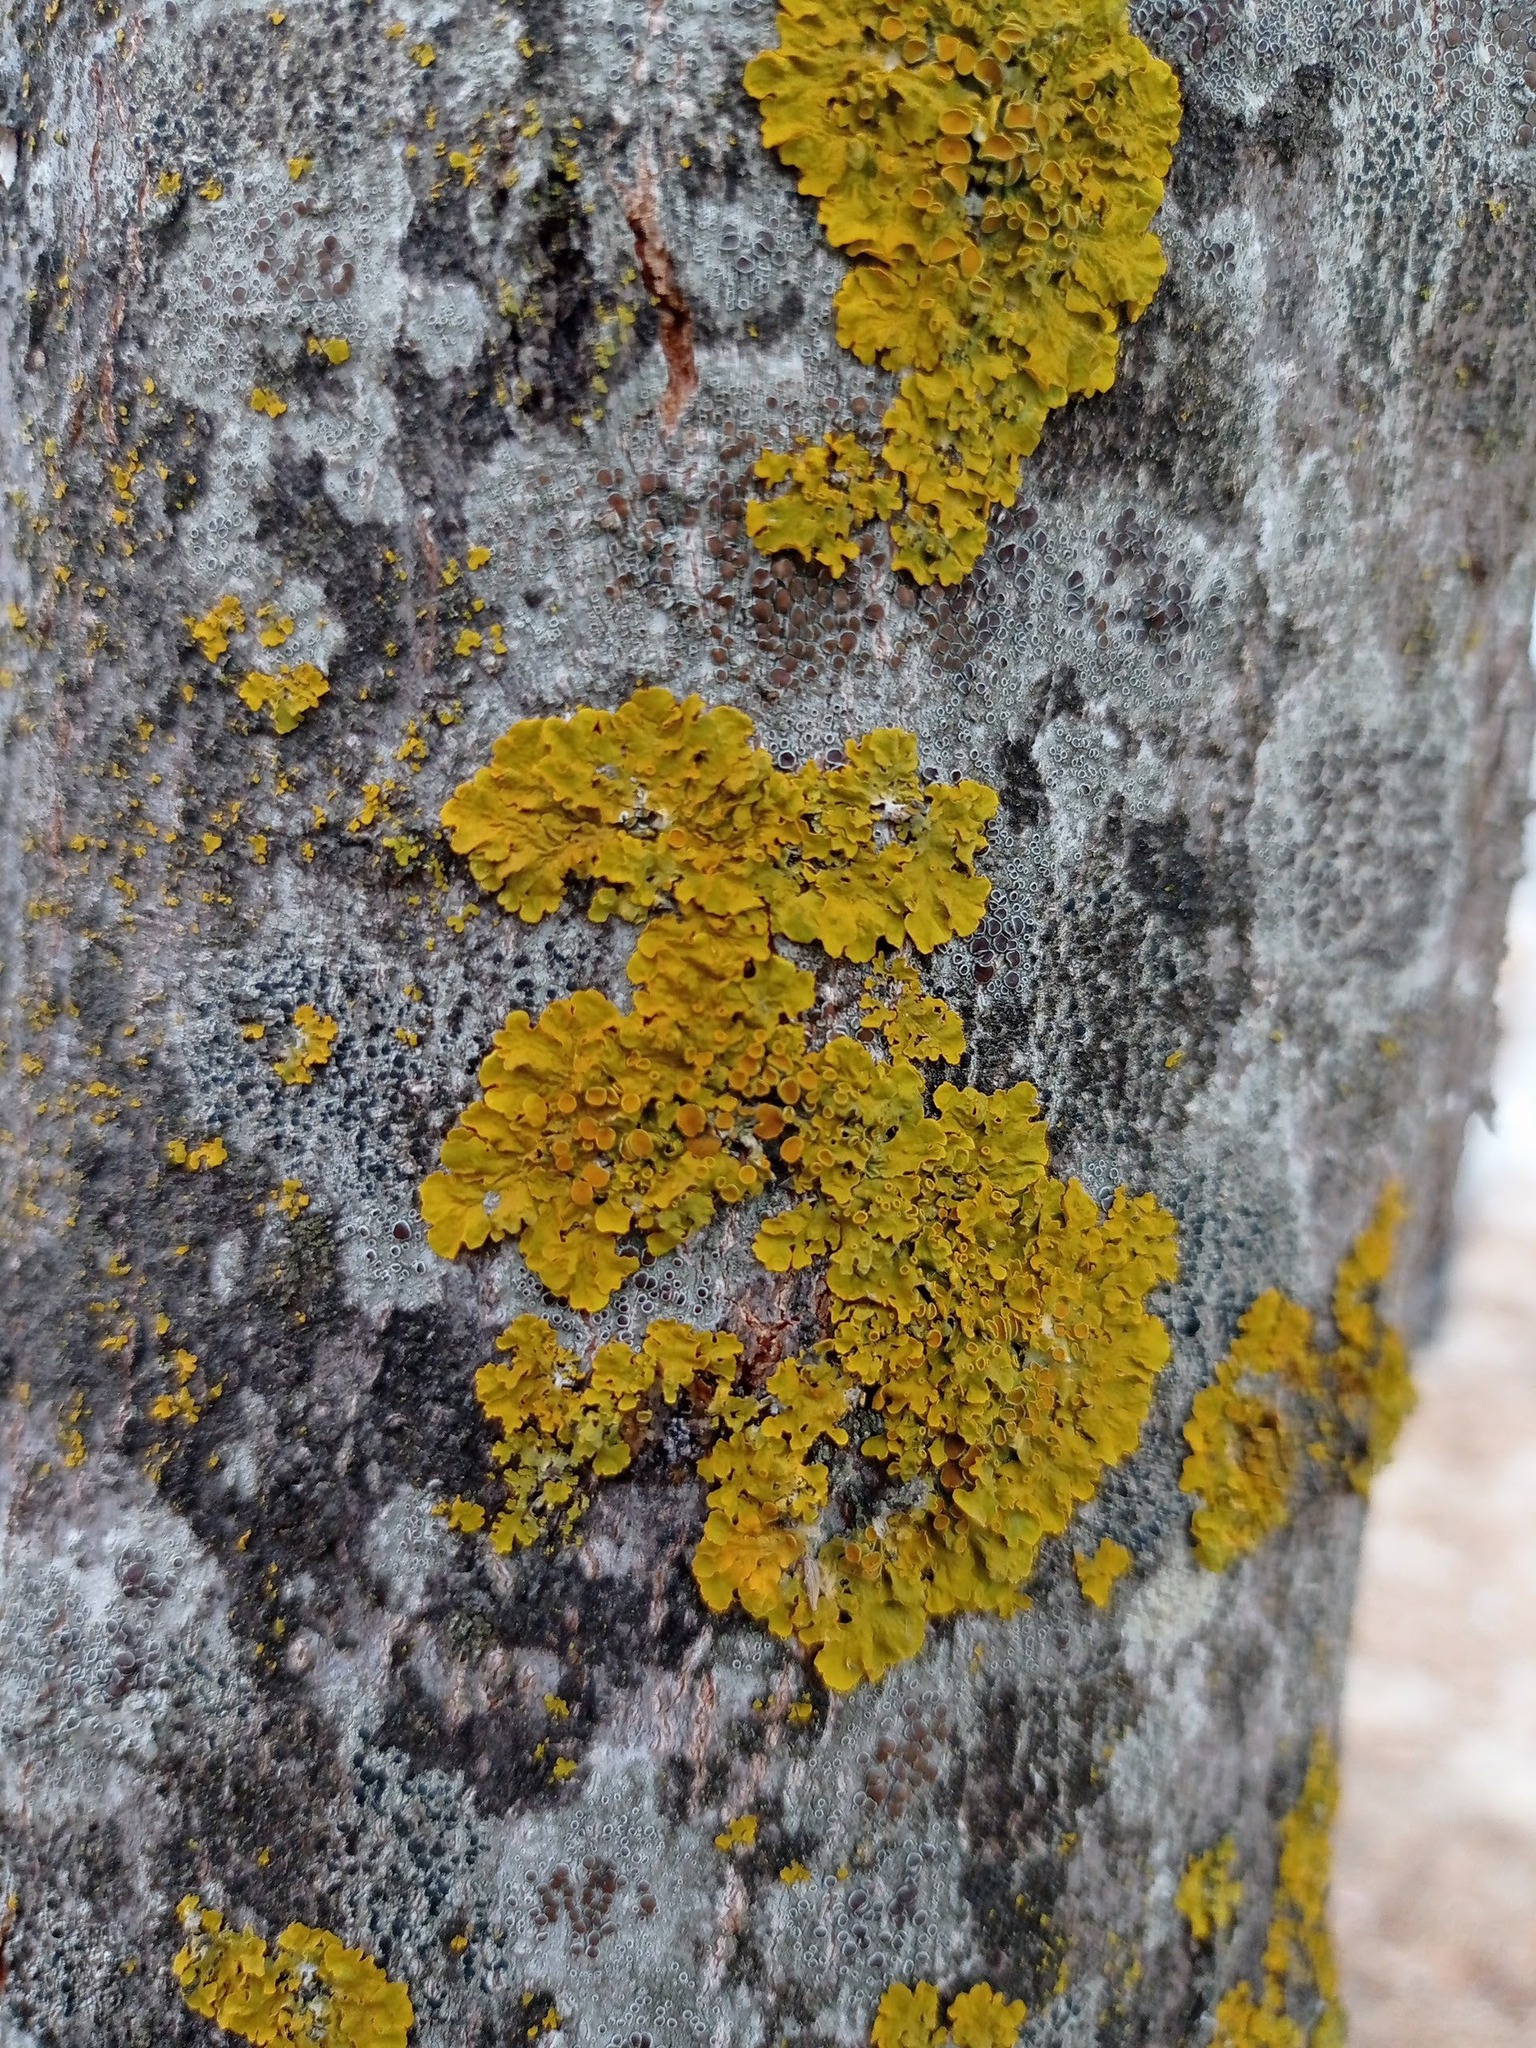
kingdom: Fungi
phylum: Ascomycota
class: Lecanoromycetes
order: Teloschistales
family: Teloschistaceae
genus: Xanthoria
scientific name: Xanthoria parietina
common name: Common orange lichen
